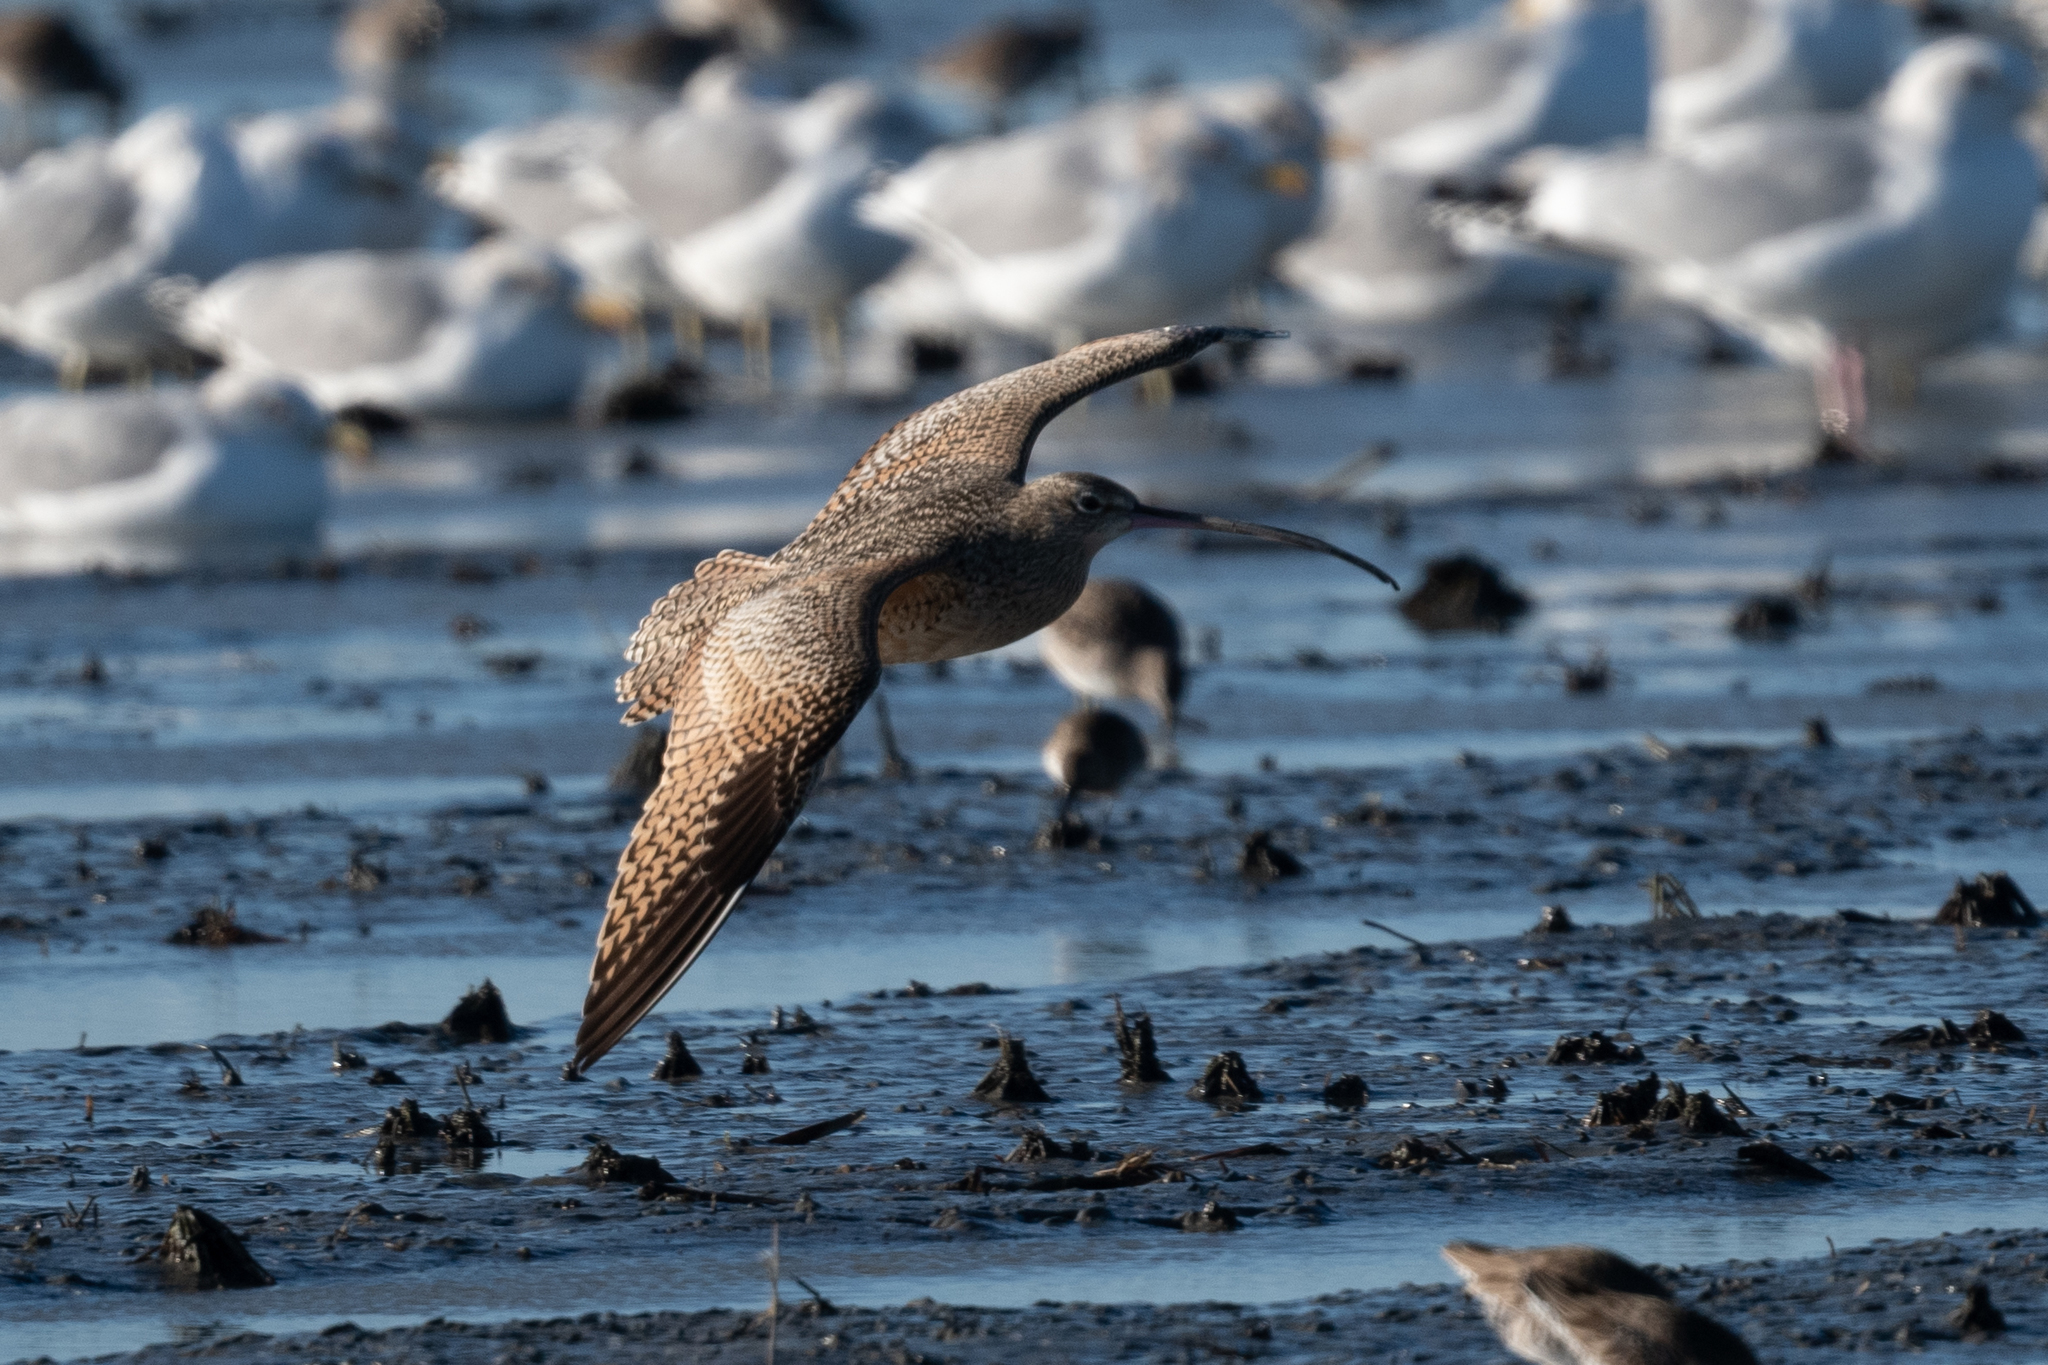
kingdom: Animalia
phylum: Chordata
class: Aves
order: Charadriiformes
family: Scolopacidae
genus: Numenius
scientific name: Numenius americanus
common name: Long-billed curlew
